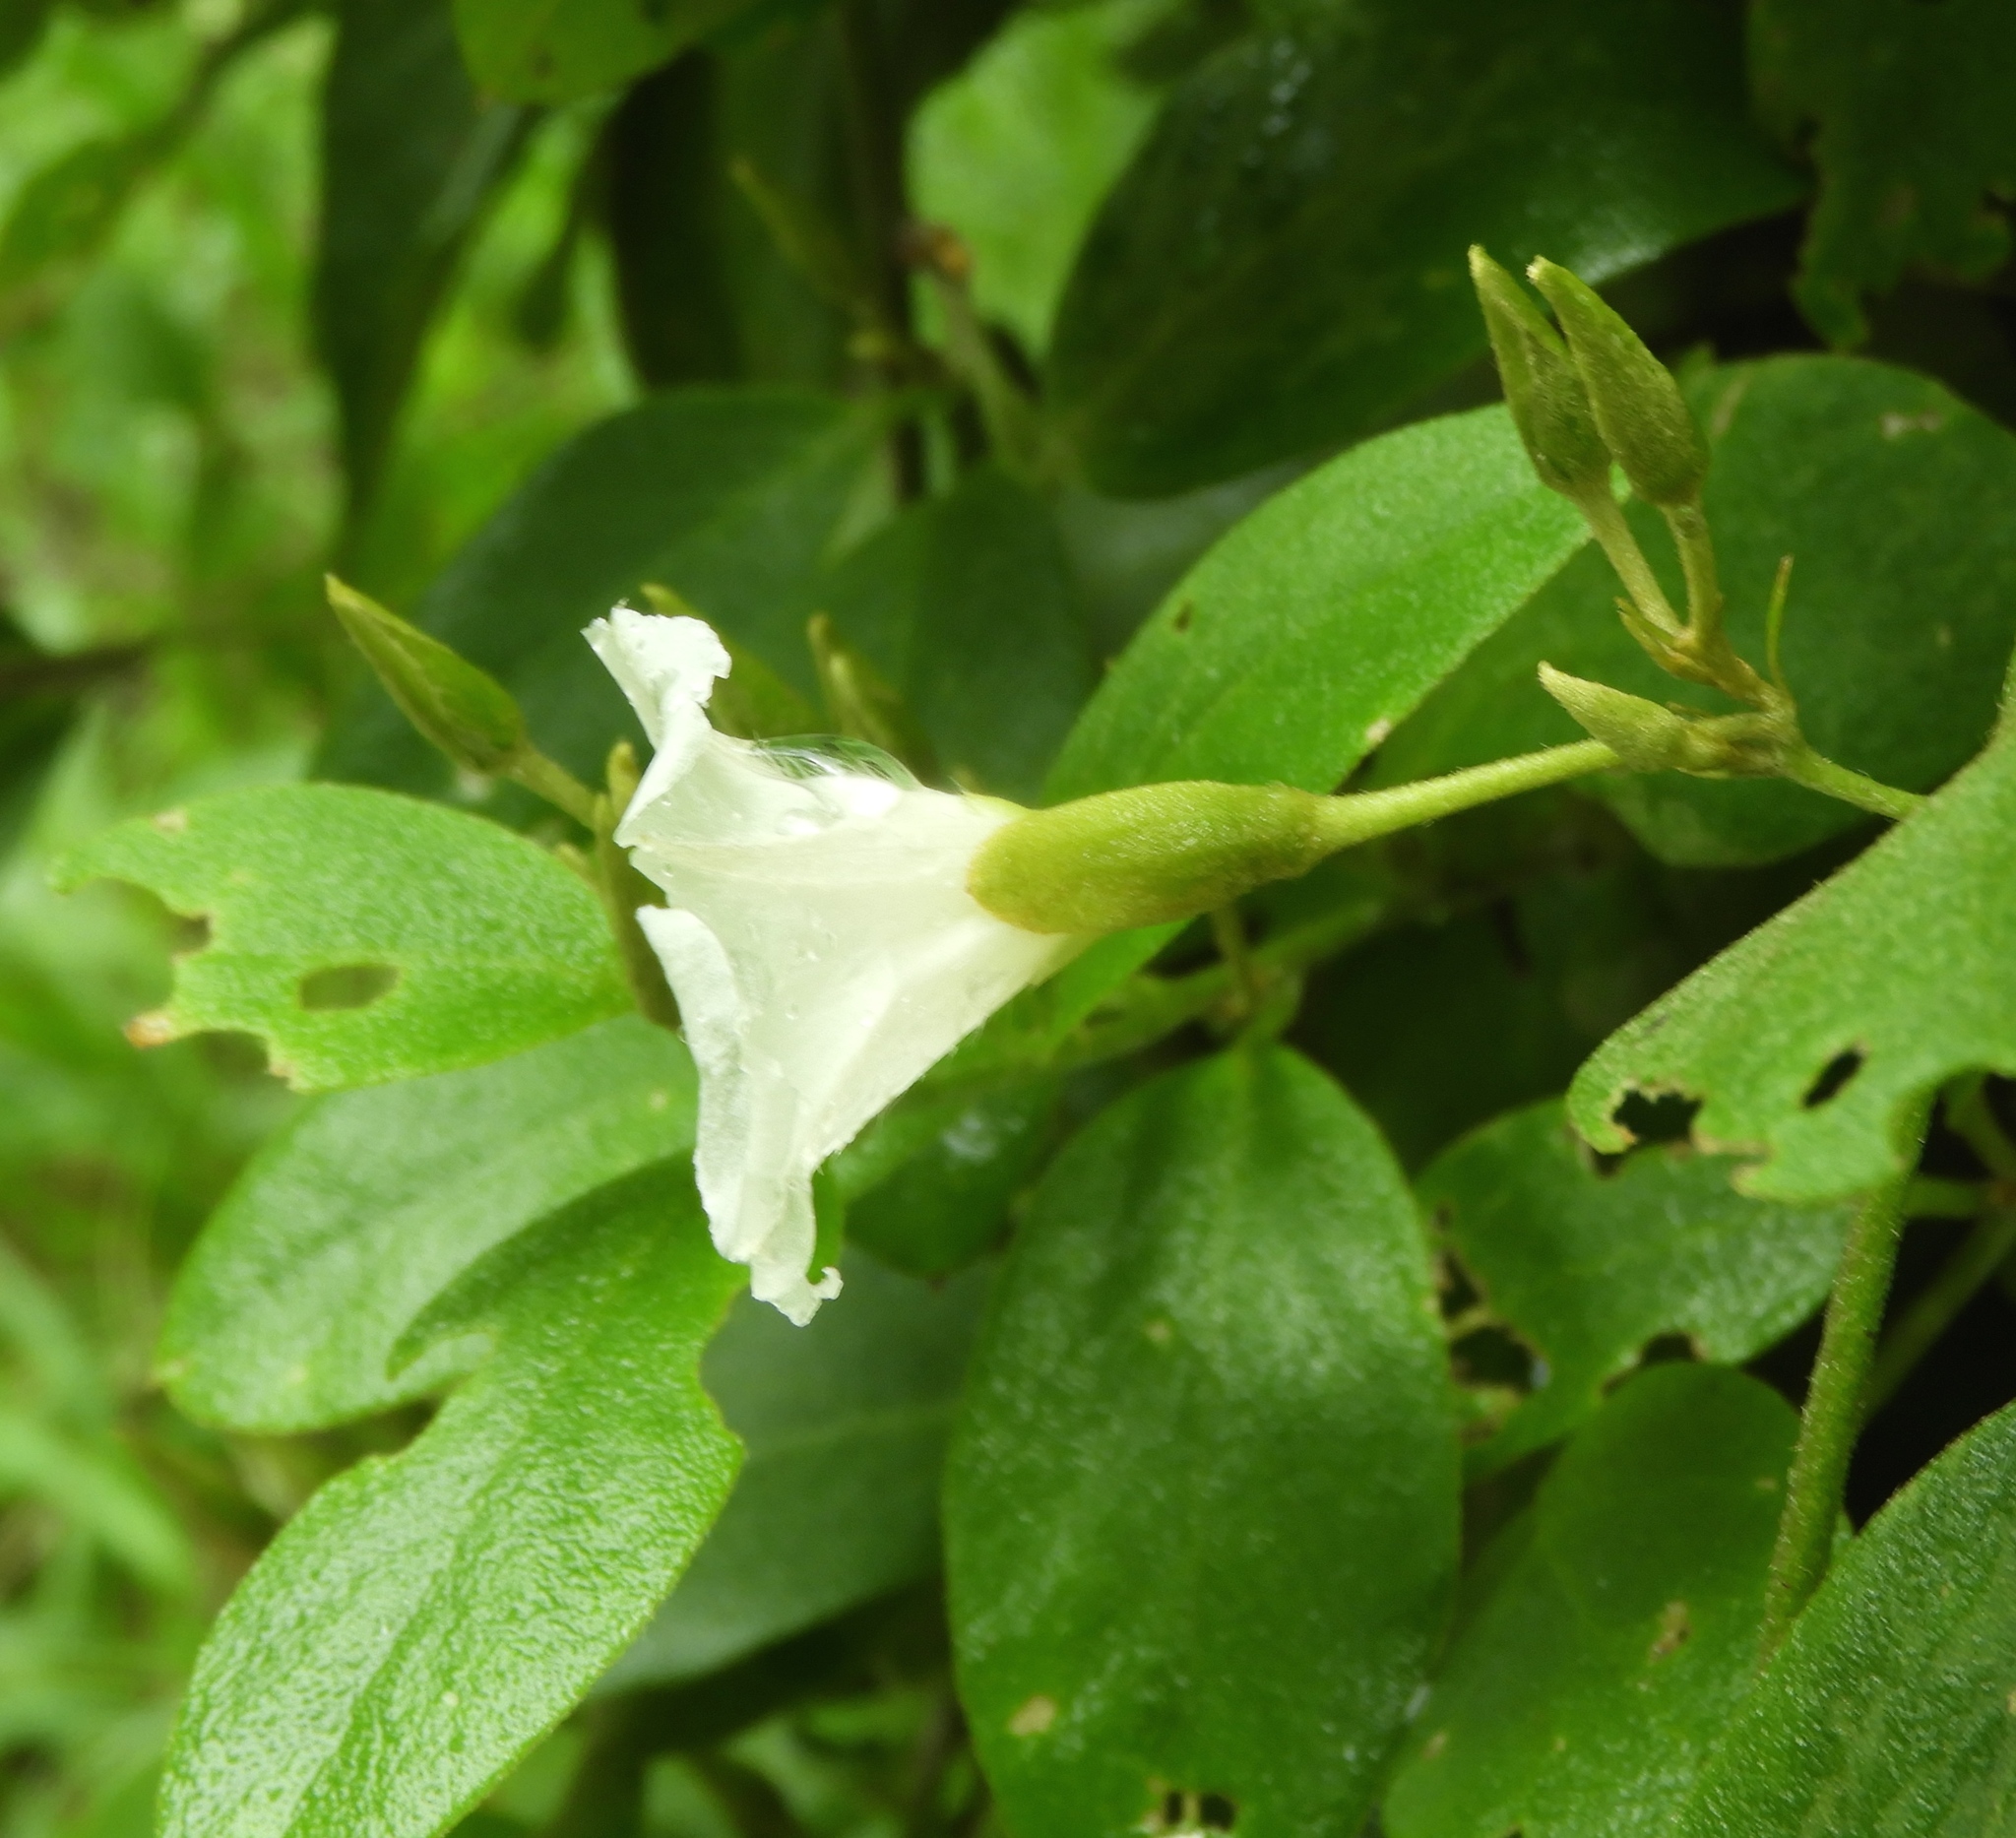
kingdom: Plantae
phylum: Tracheophyta
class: Magnoliopsida
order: Solanales
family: Convolvulaceae
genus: Bonamia
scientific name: Bonamia sulphurea
